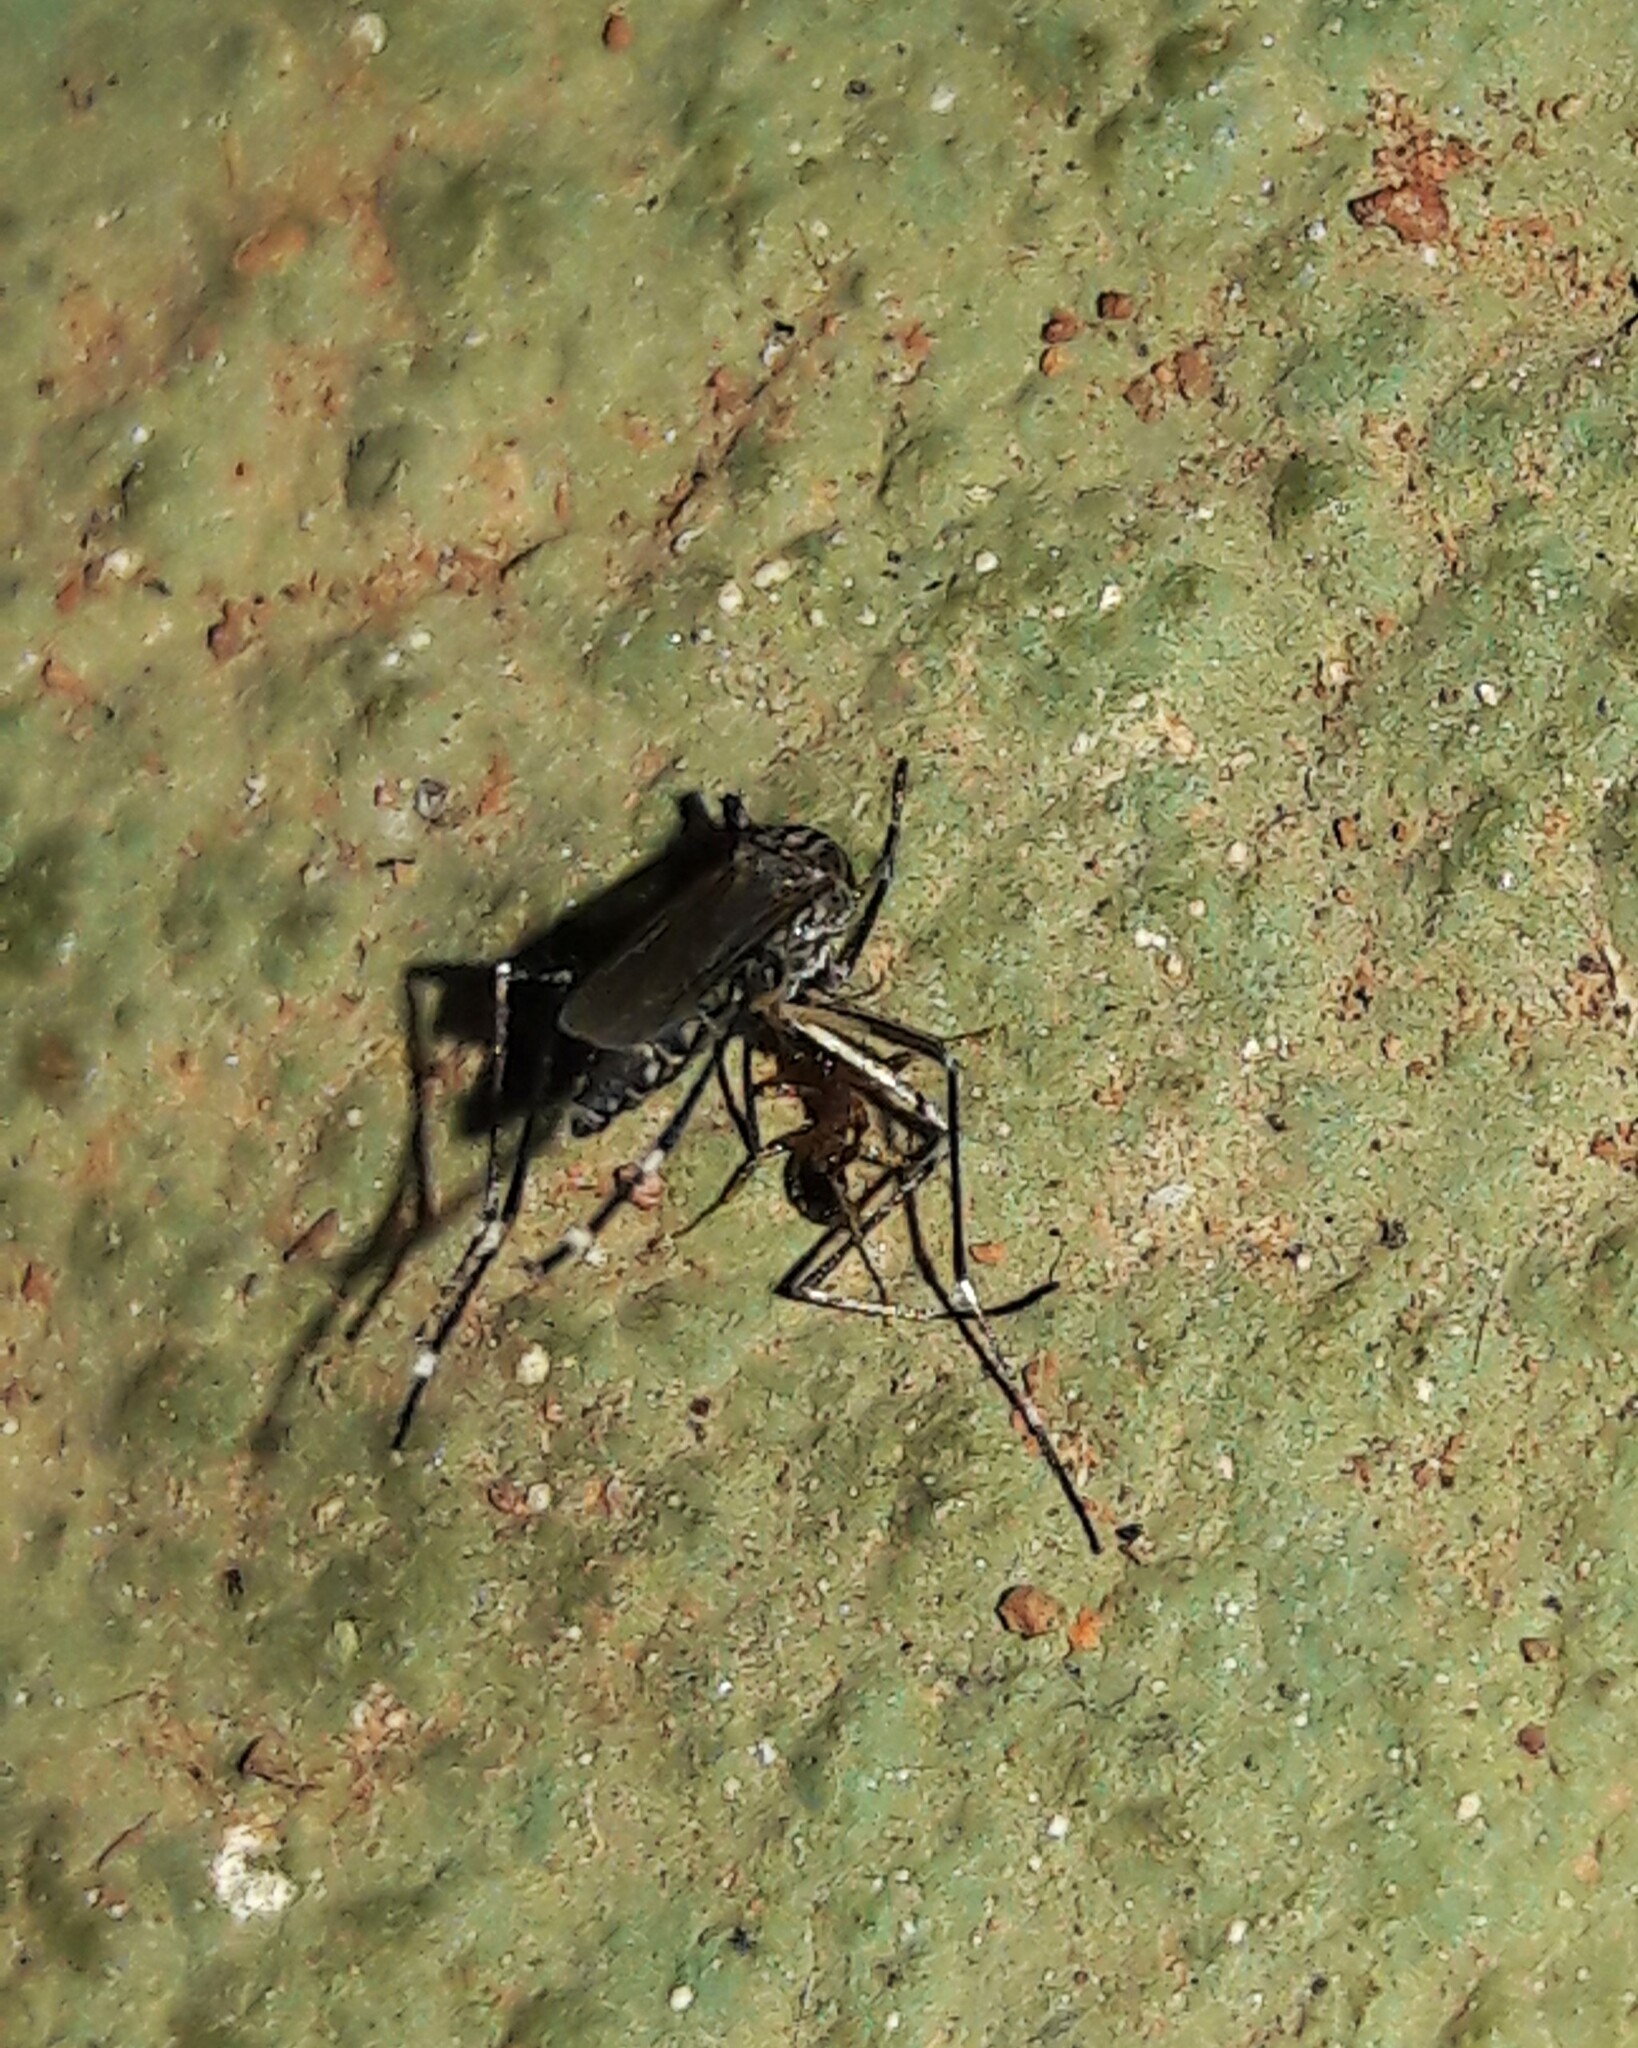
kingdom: Animalia
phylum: Arthropoda
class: Insecta
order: Diptera
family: Culicidae
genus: Aedes
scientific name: Aedes aegypti
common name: Yellow fever mosquito
